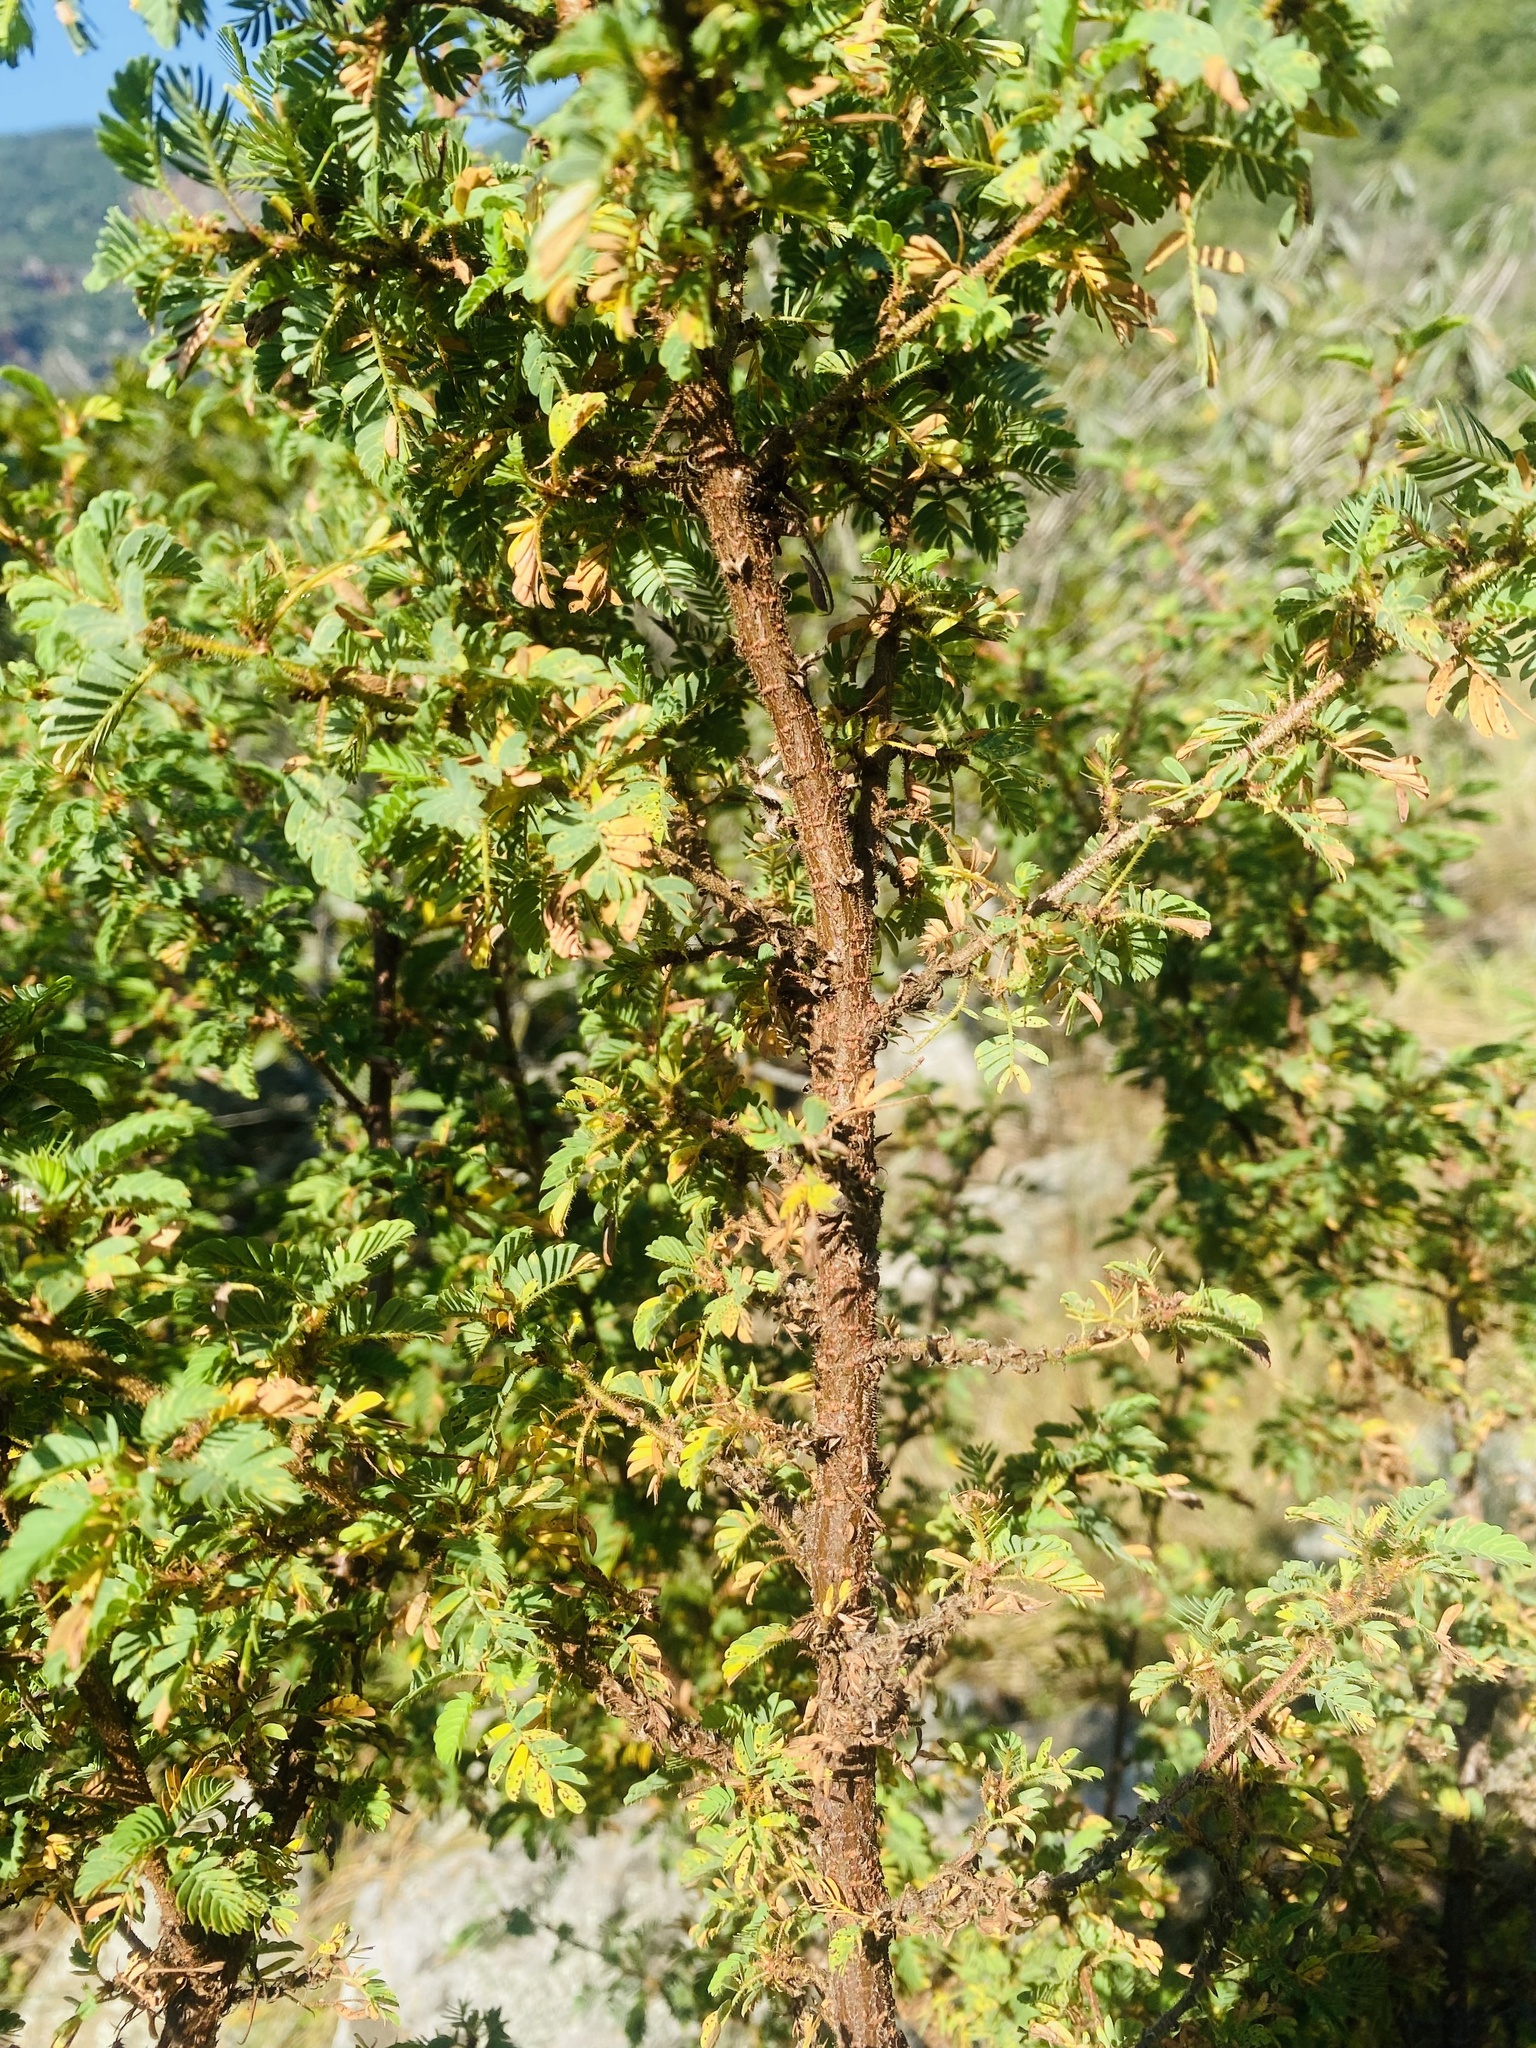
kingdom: Plantae
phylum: Tracheophyta
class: Magnoliopsida
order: Fabales
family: Fabaceae
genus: Kotschya
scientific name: Kotschya thymodora
